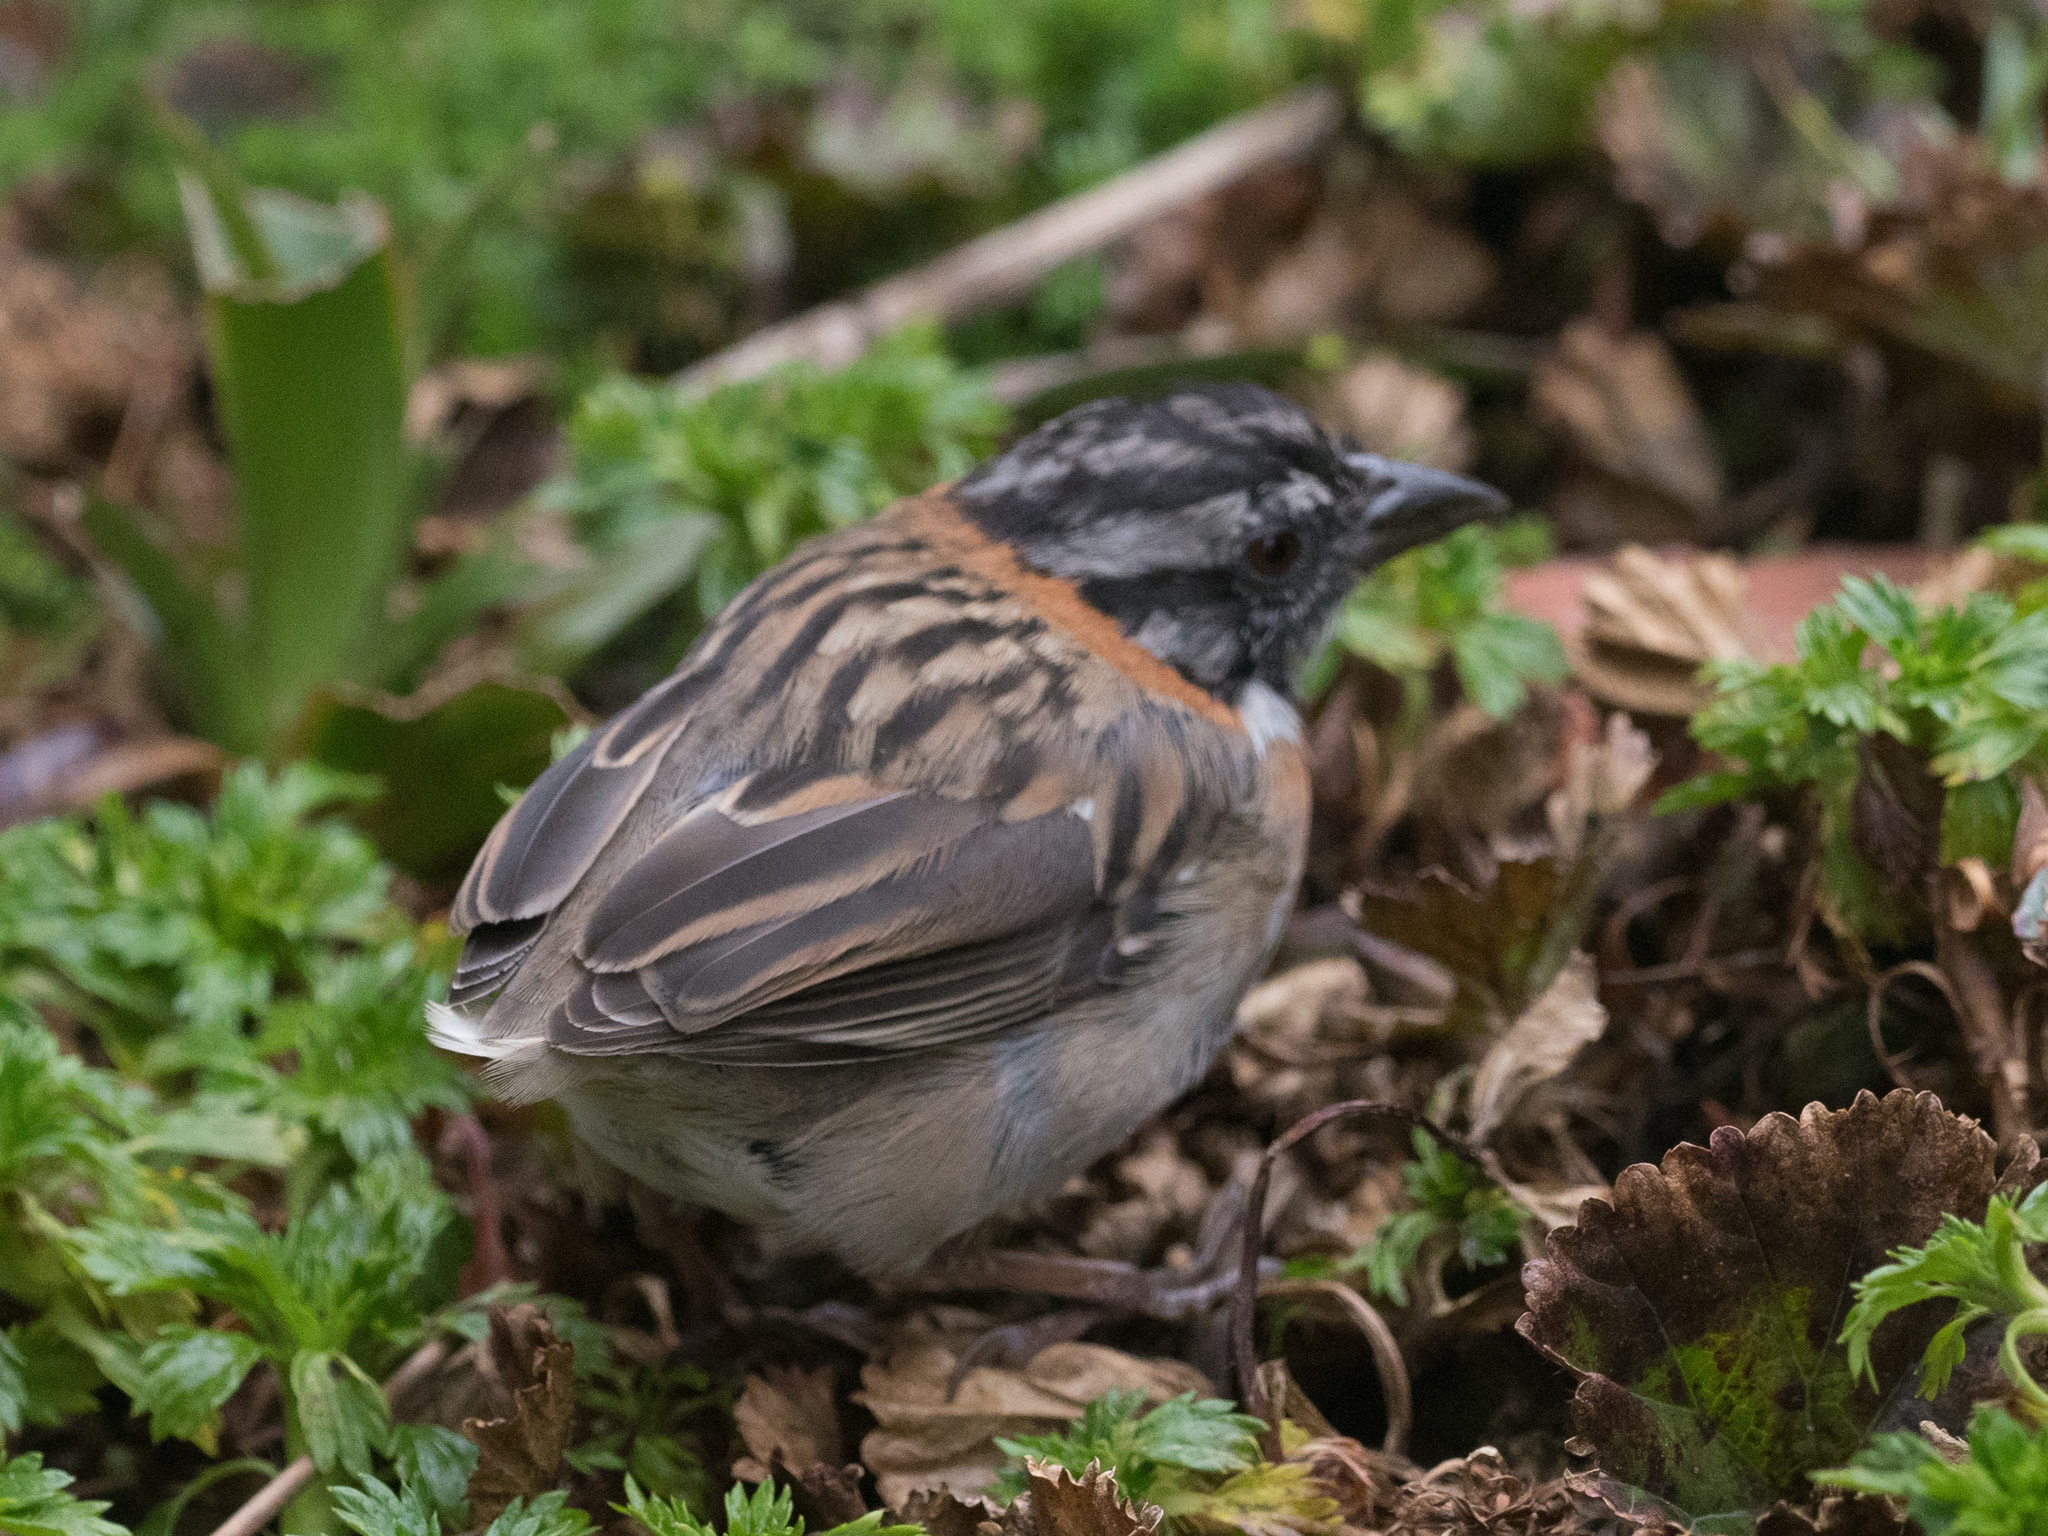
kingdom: Animalia
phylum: Chordata
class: Aves
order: Passeriformes
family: Passerellidae
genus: Zonotrichia
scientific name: Zonotrichia capensis
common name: Rufous-collared sparrow
